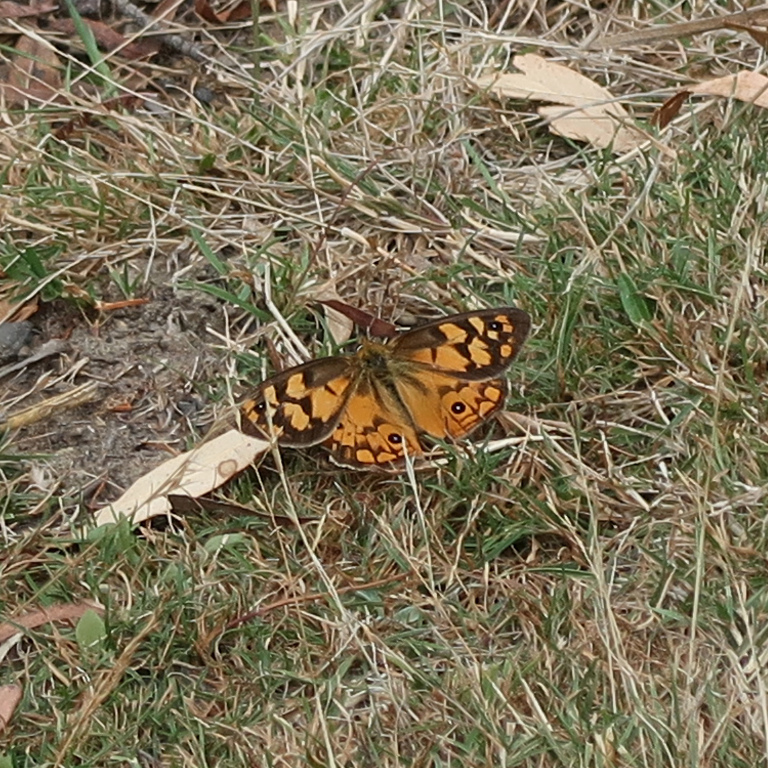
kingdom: Animalia
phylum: Arthropoda
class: Insecta
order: Lepidoptera
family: Nymphalidae
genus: Heteronympha
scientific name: Heteronympha penelope
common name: Shouldered brown
